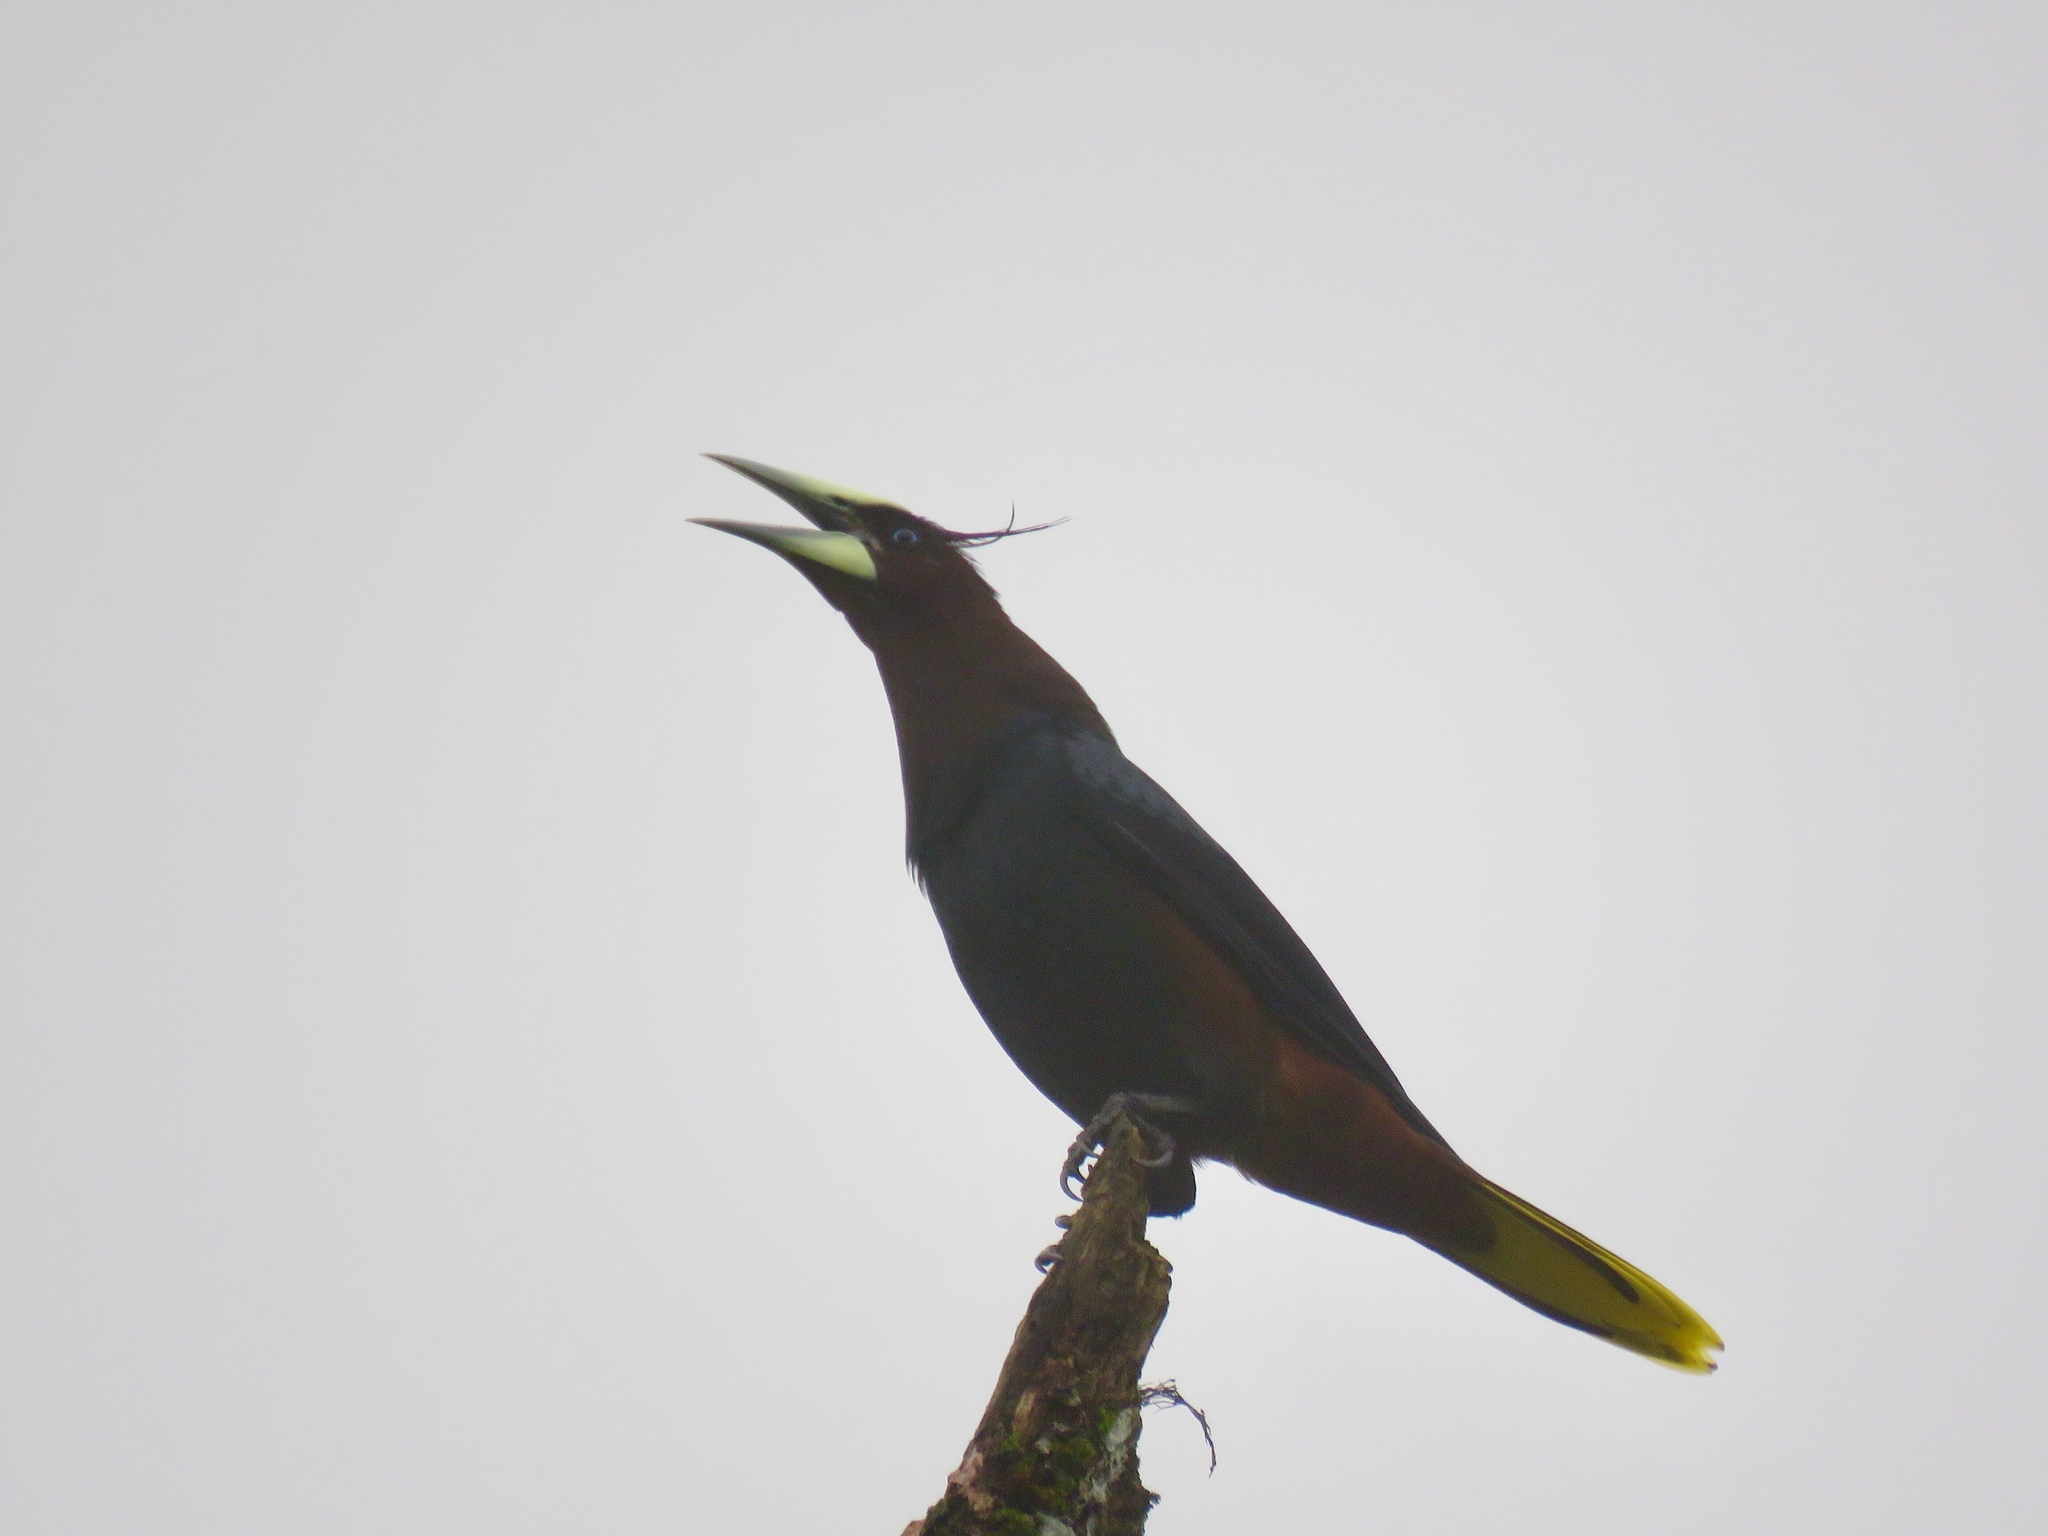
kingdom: Animalia
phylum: Chordata
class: Aves
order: Passeriformes
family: Icteridae
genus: Psarocolius
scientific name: Psarocolius wagleri
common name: Chestnut-headed oropendola
